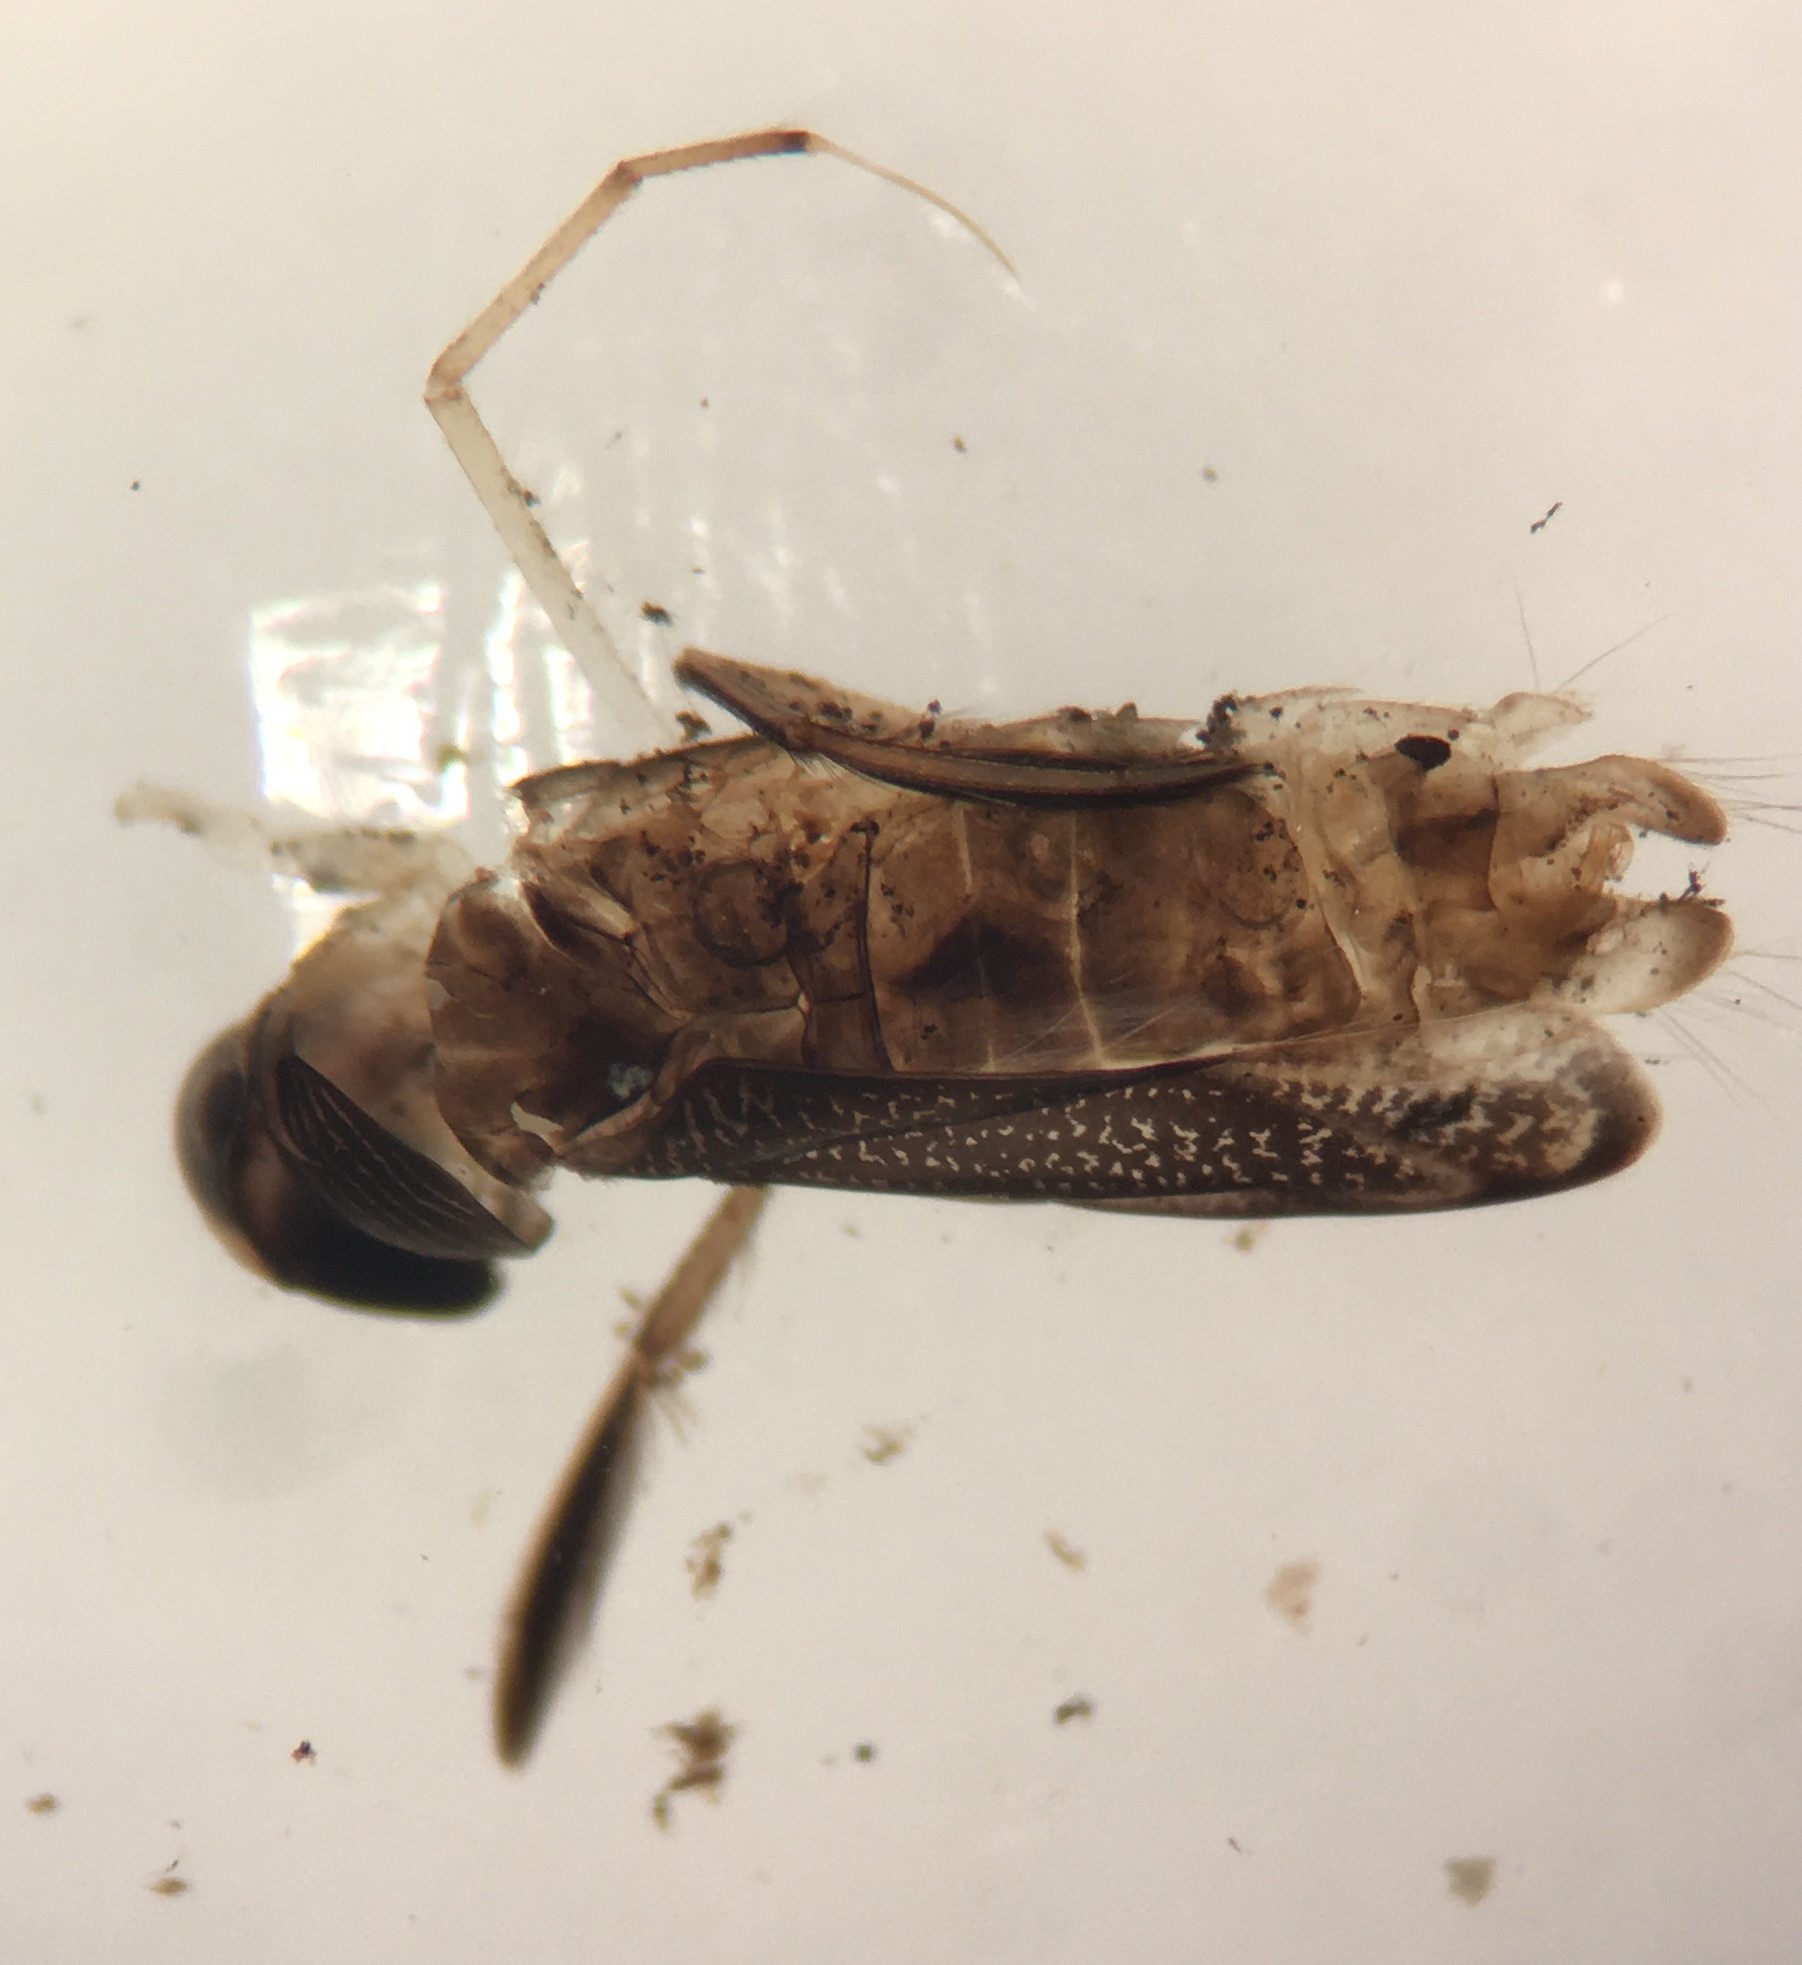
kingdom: Animalia
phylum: Arthropoda
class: Insecta
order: Hemiptera
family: Corixidae
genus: Sigara
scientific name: Sigara sigmoidea
